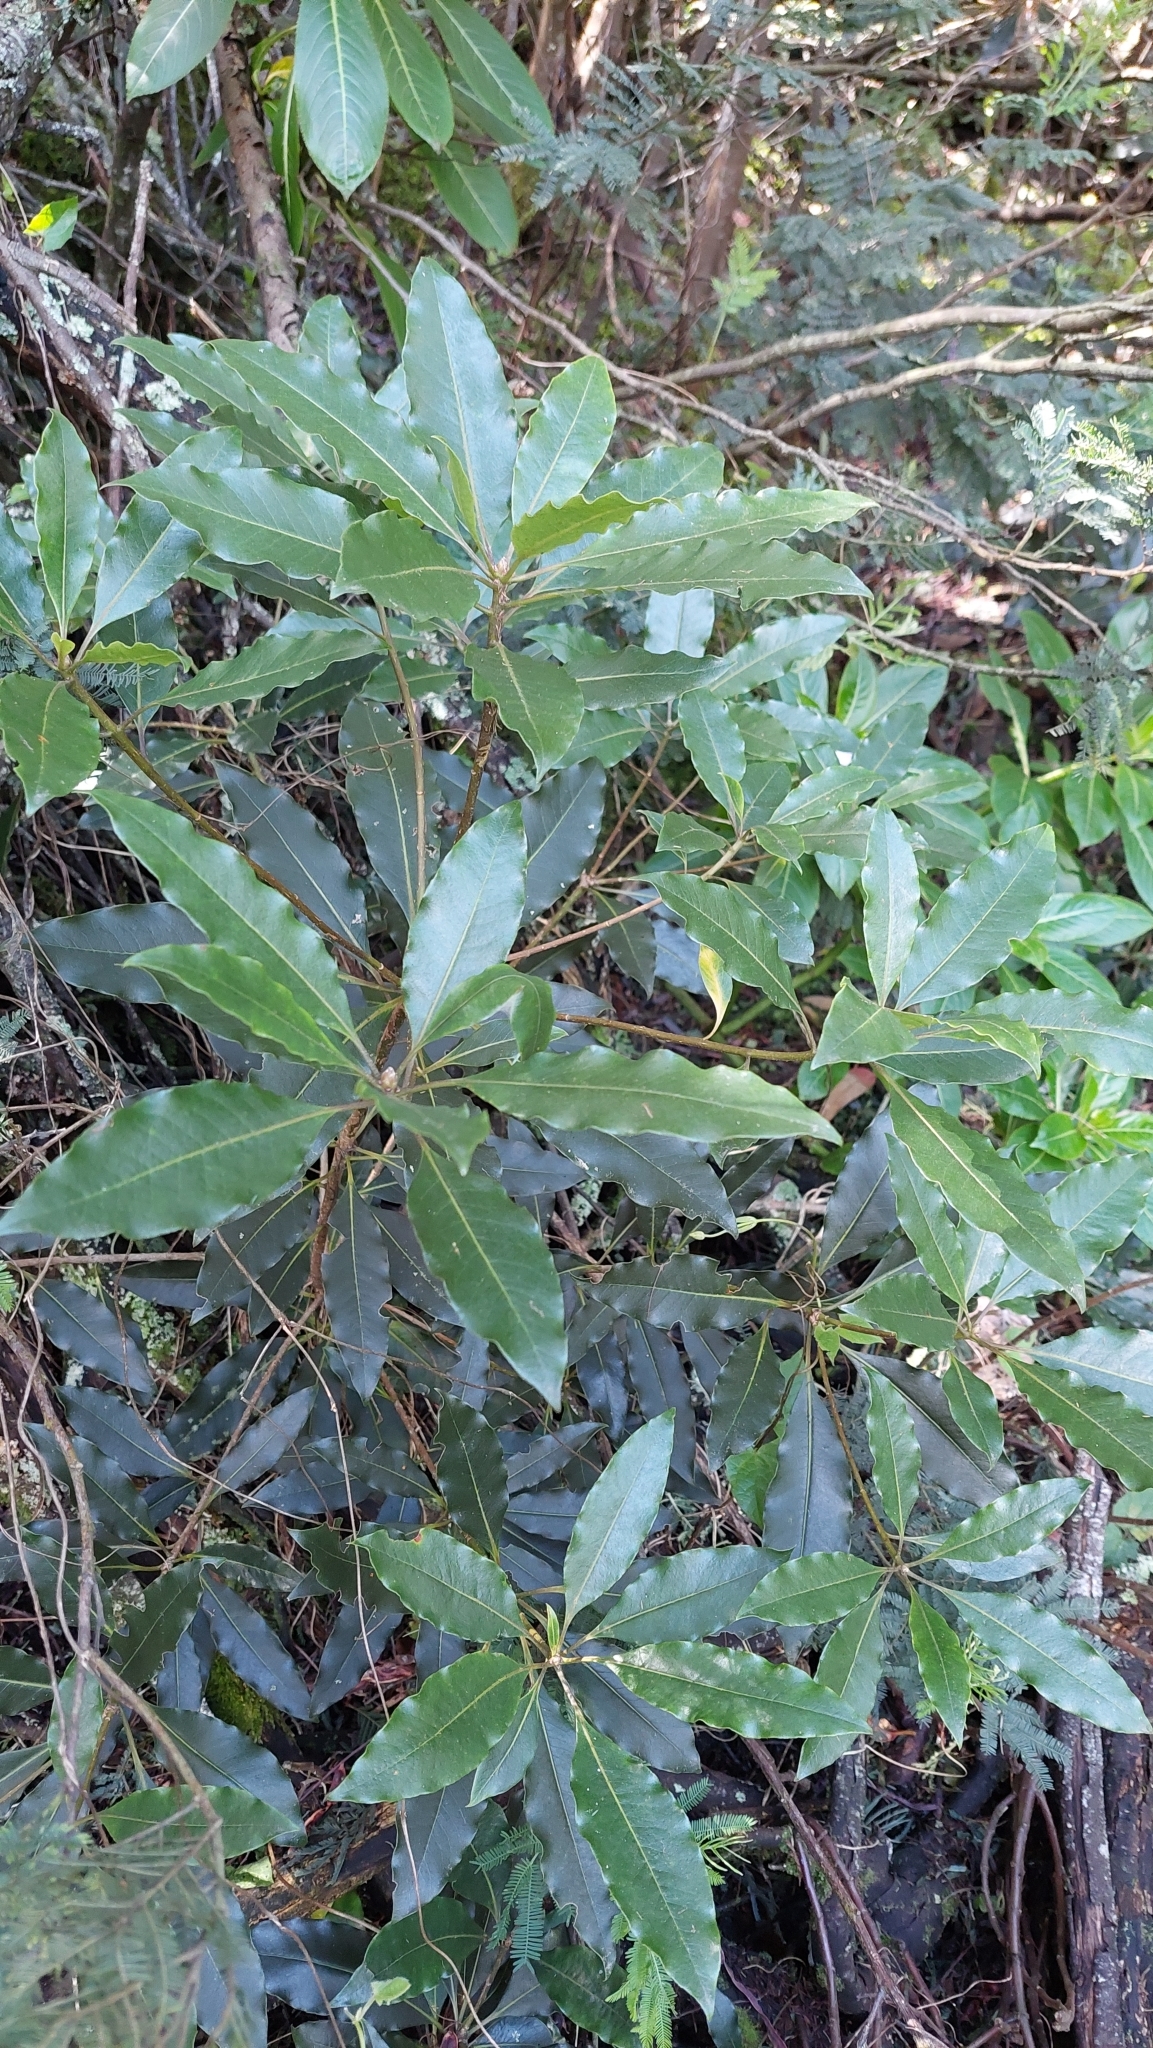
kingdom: Plantae
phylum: Tracheophyta
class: Magnoliopsida
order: Apiales
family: Pittosporaceae
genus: Pittosporum
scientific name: Pittosporum undulatum
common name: Australian cheesewood
